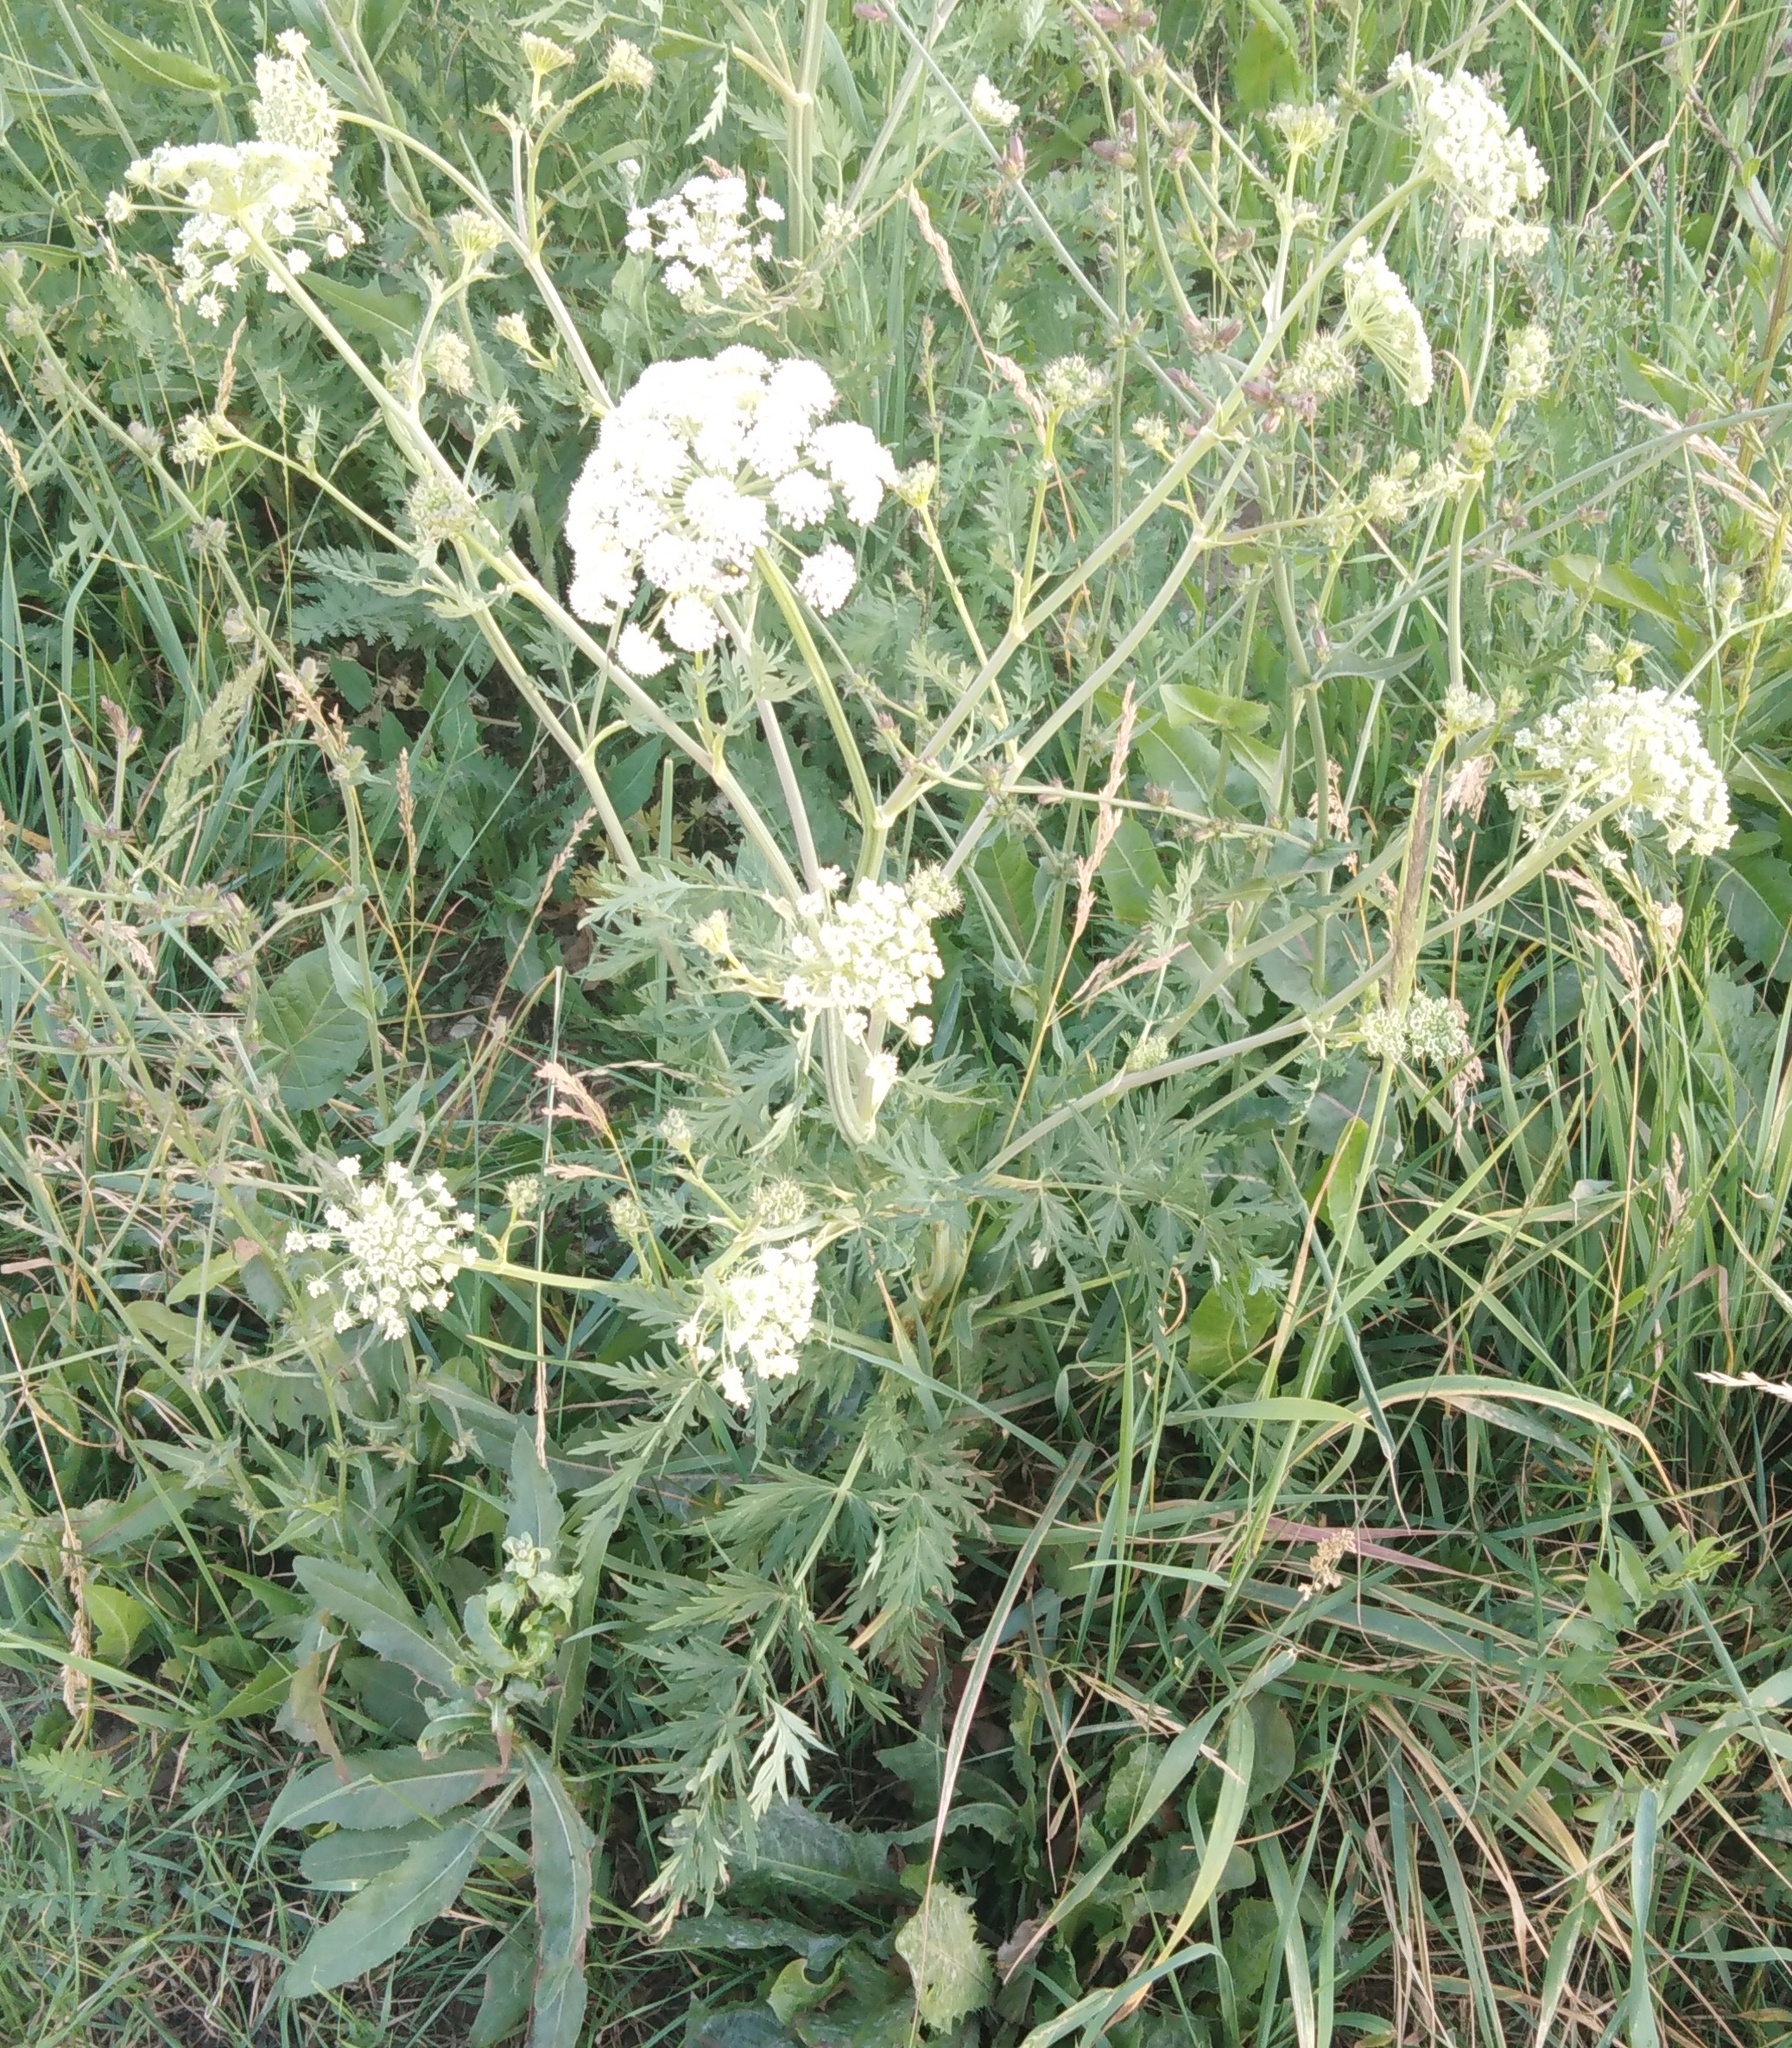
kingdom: Plantae
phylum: Tracheophyta
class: Magnoliopsida
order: Apiales
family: Apiaceae
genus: Seseli
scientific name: Seseli libanotis
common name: Mooncarrot
